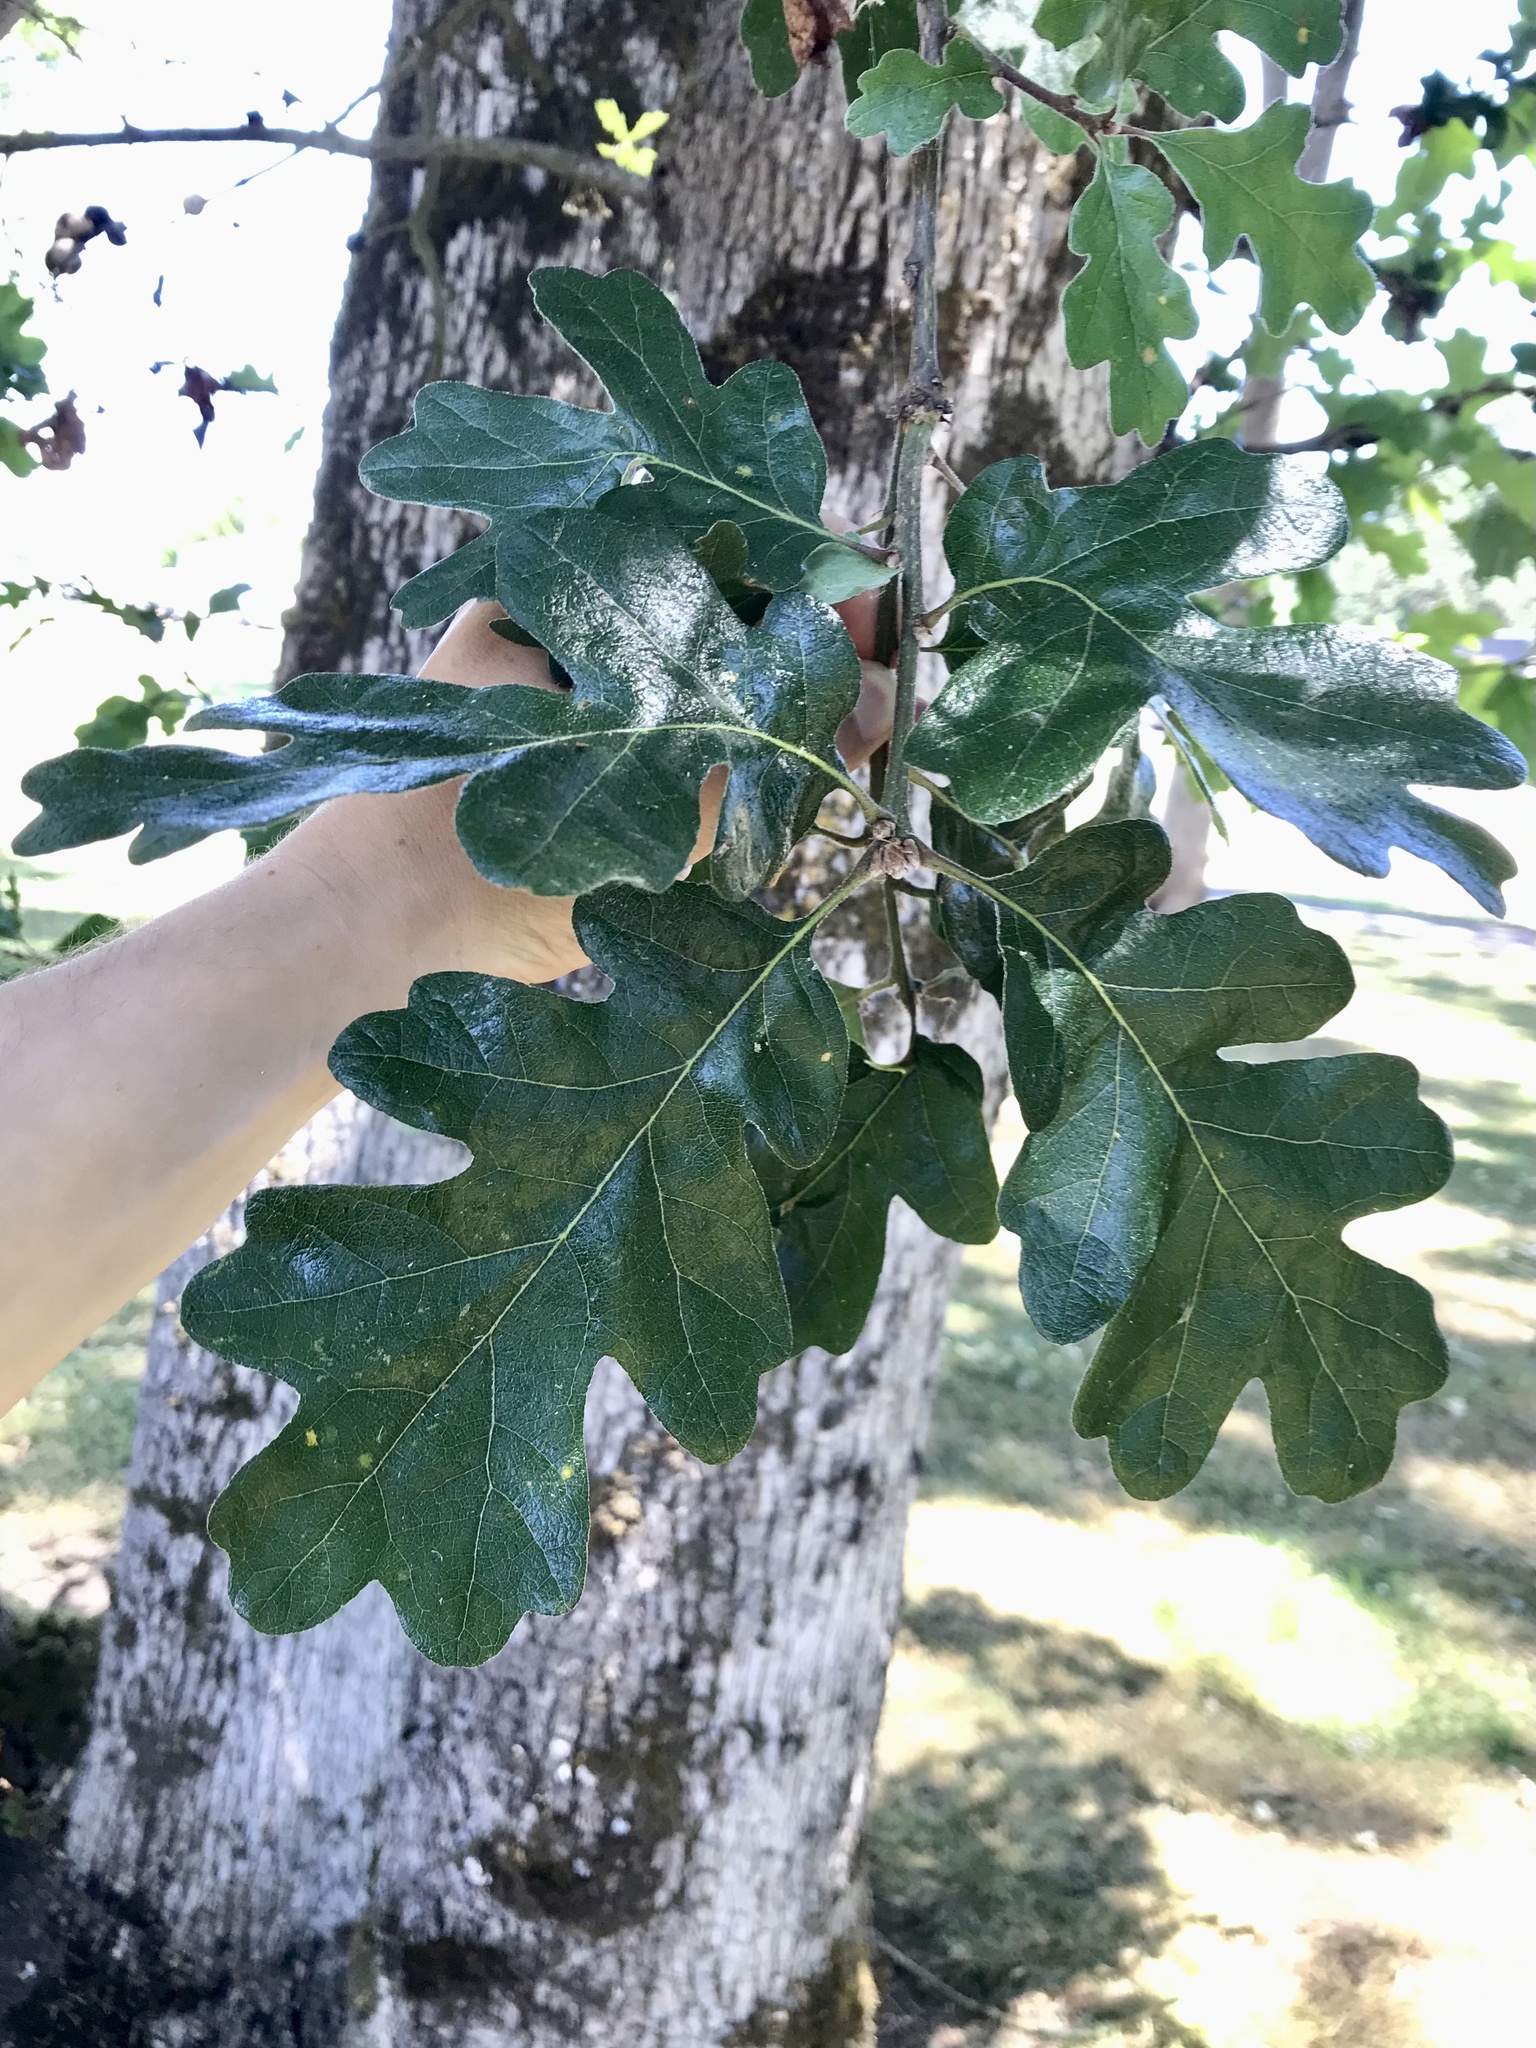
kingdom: Plantae
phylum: Tracheophyta
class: Magnoliopsida
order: Fagales
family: Fagaceae
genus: Quercus
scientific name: Quercus garryana
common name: Garry oak
